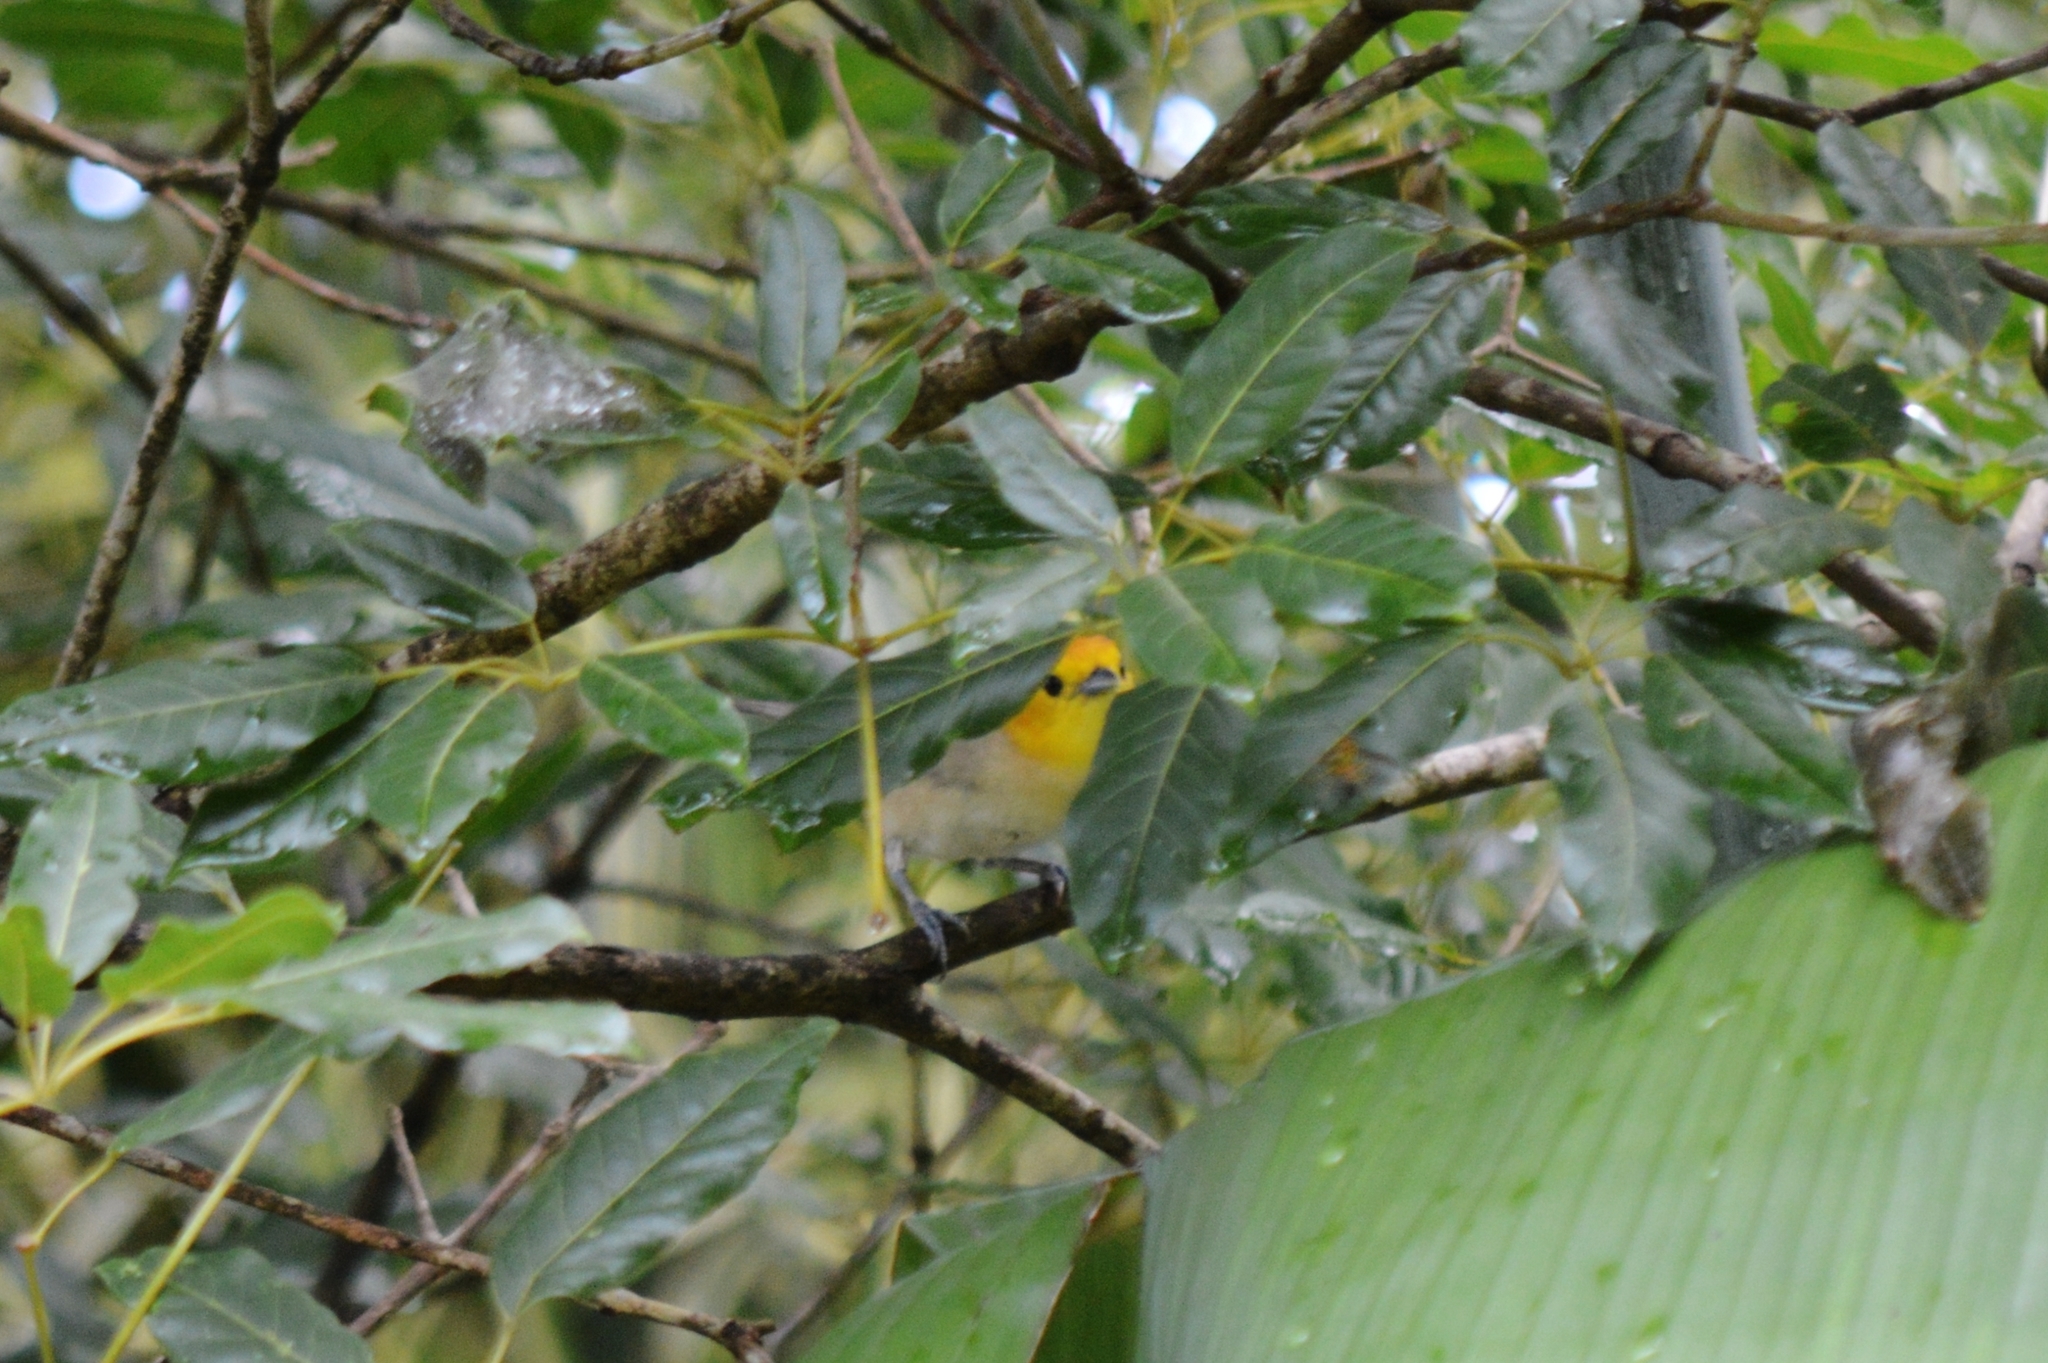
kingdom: Animalia
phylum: Chordata
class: Aves
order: Passeriformes
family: Thraupidae
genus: Thlypopsis
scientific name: Thlypopsis sordida
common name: Orange-headed tanager
